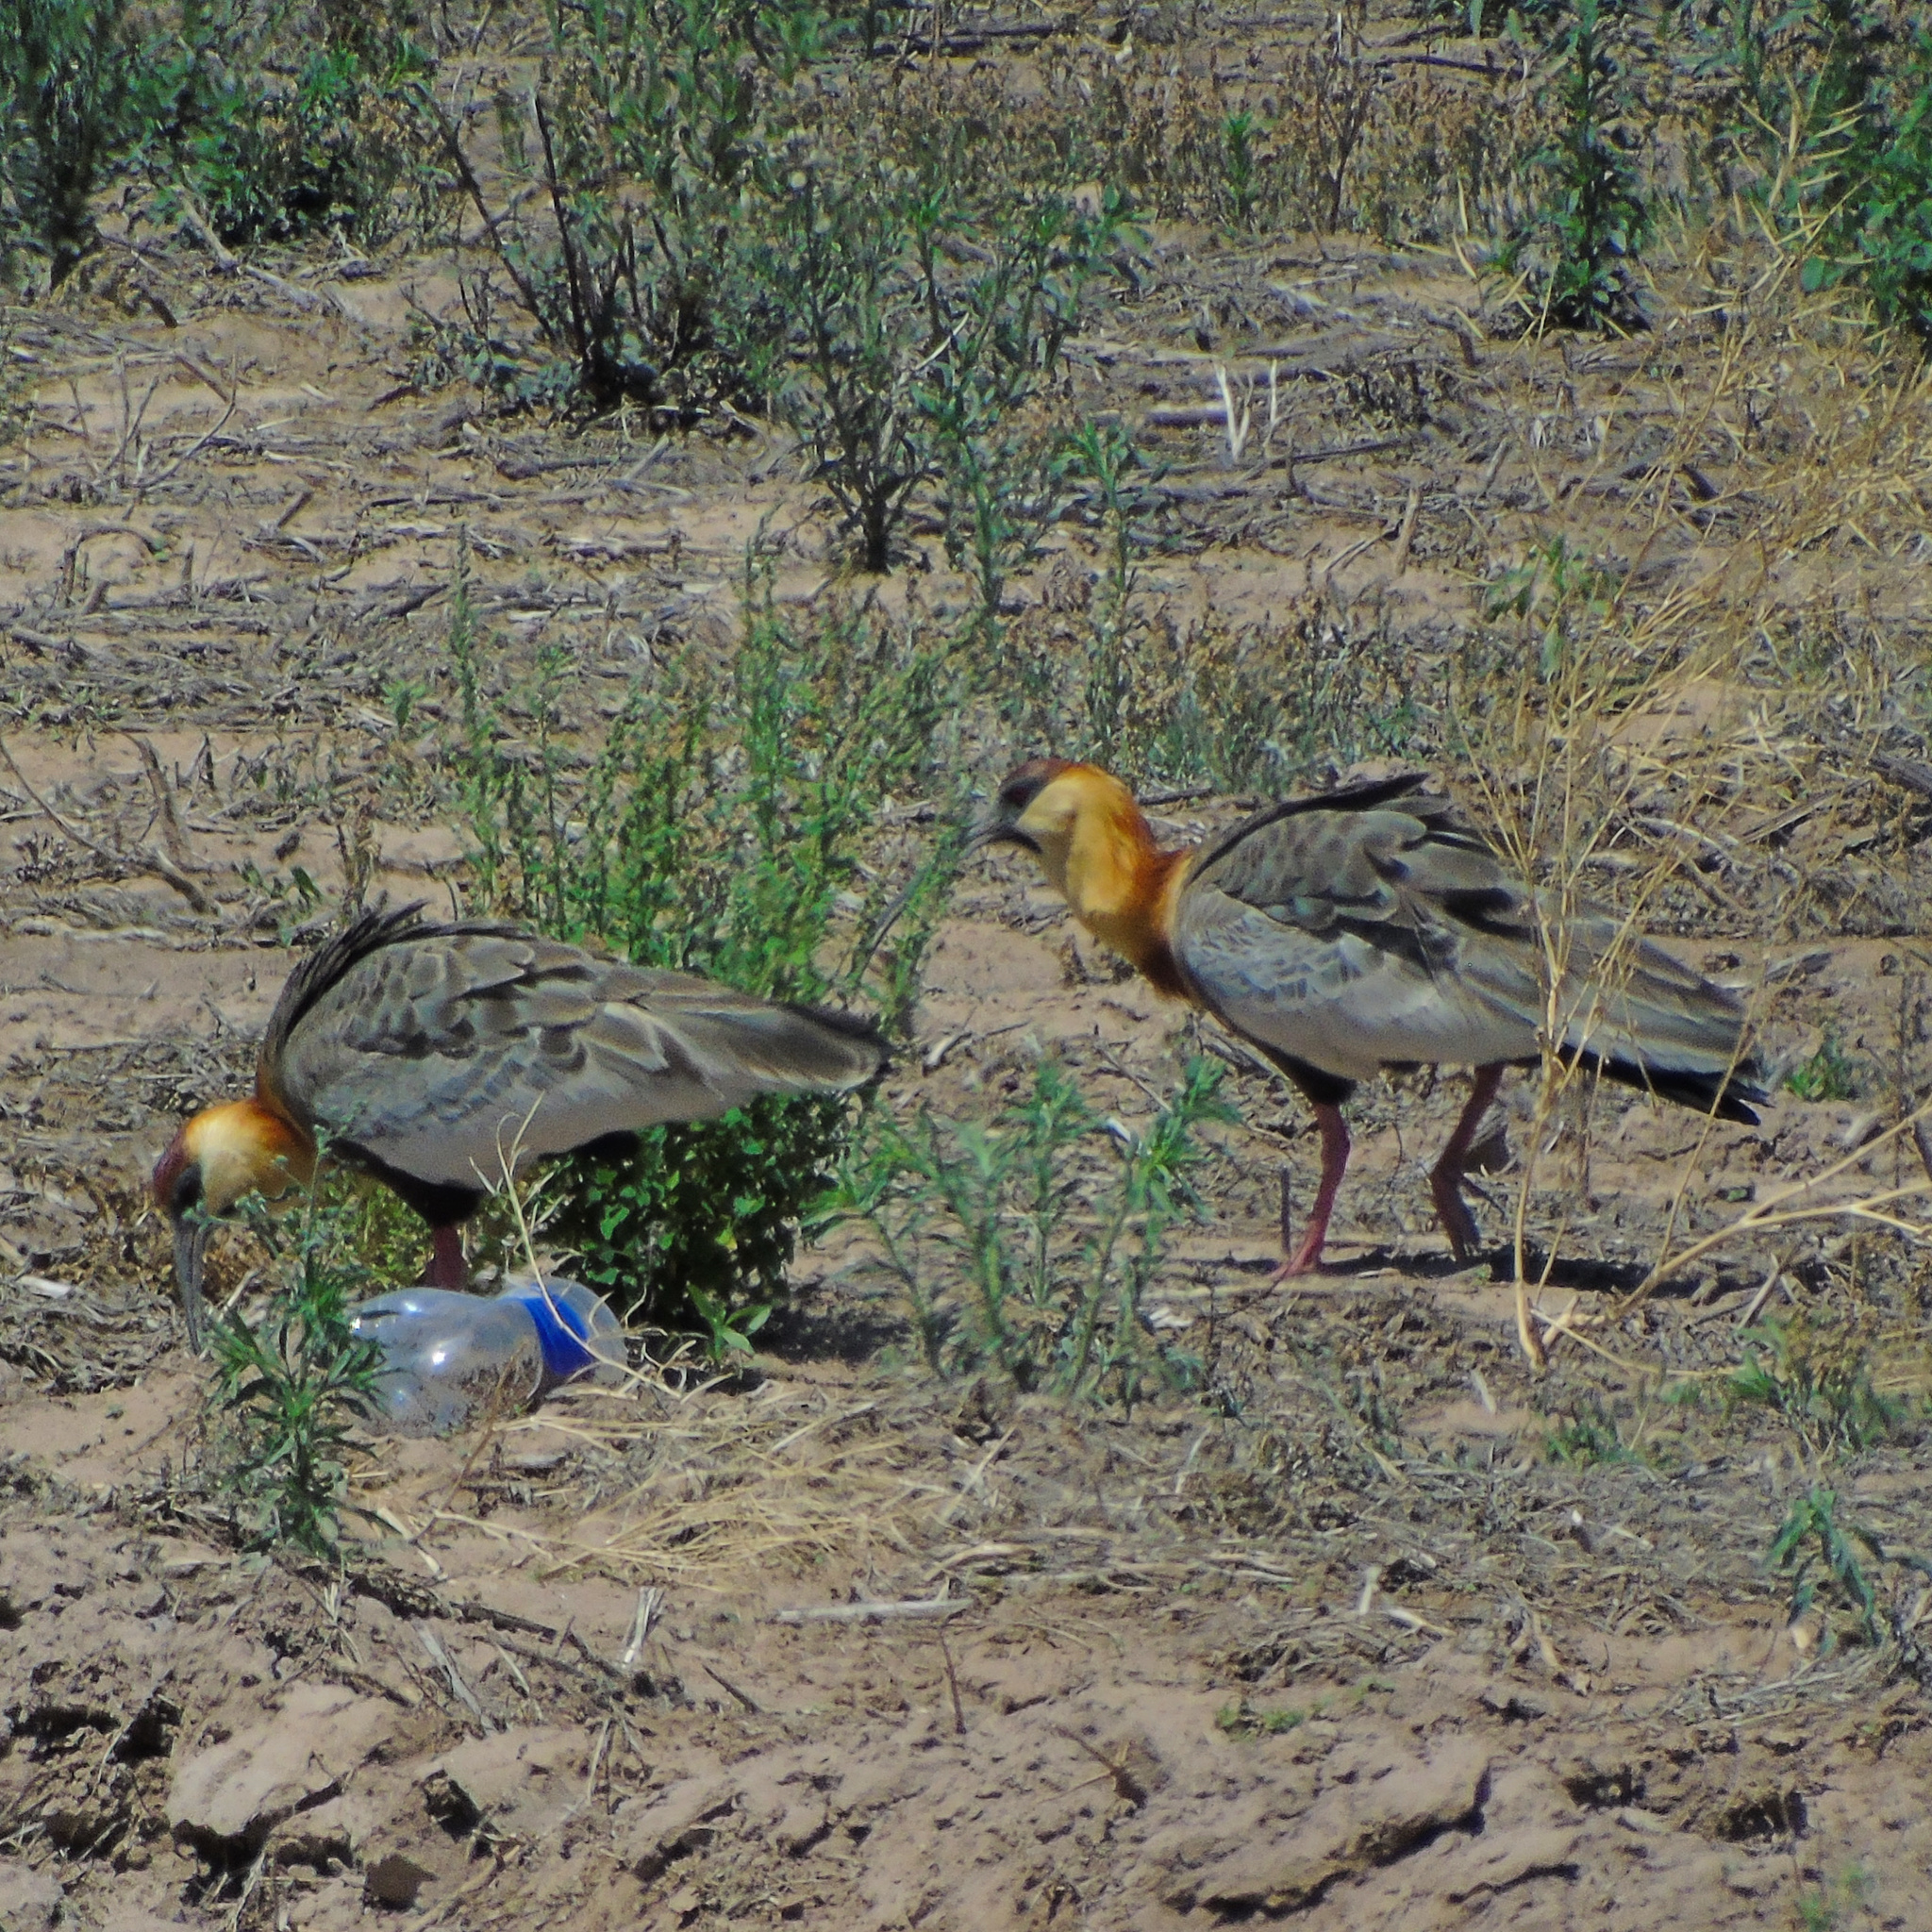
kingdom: Animalia
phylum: Chordata
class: Aves
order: Pelecaniformes
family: Threskiornithidae
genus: Theristicus
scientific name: Theristicus caudatus
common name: Buff-necked ibis
